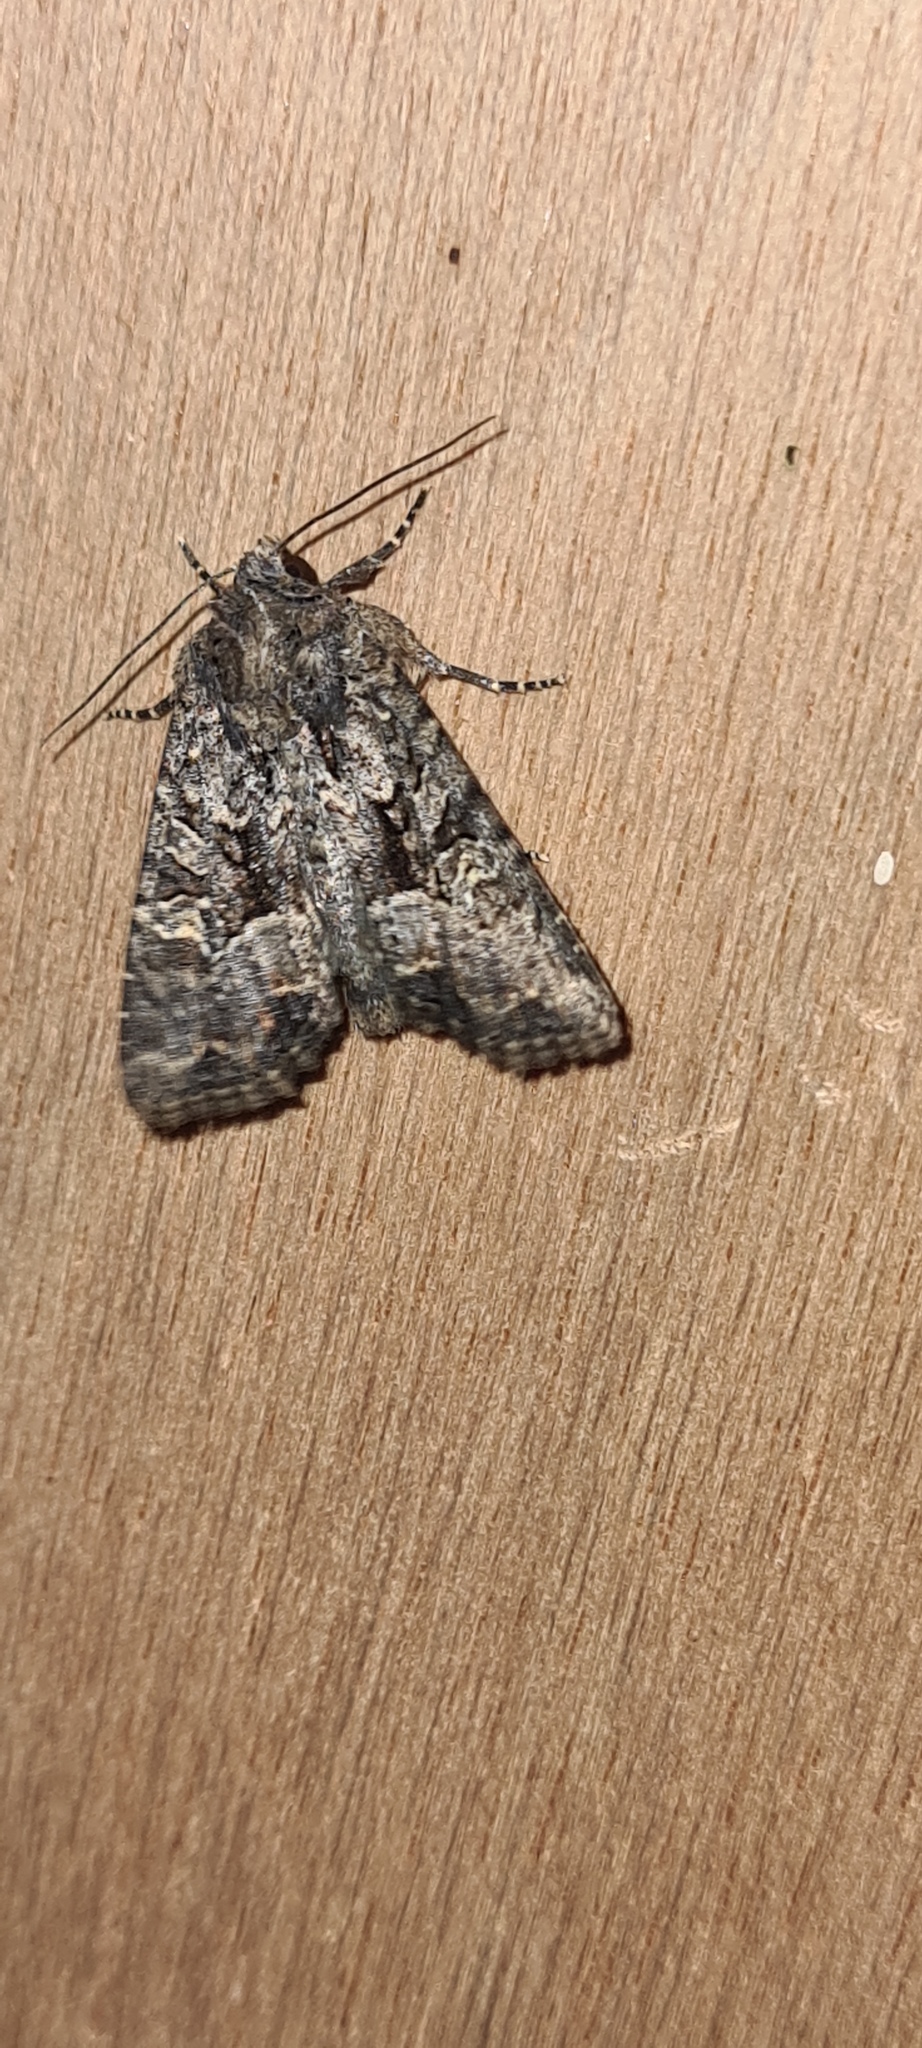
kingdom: Animalia
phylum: Arthropoda
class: Insecta
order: Lepidoptera
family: Noctuidae
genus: Mesapamea
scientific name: Mesapamea
